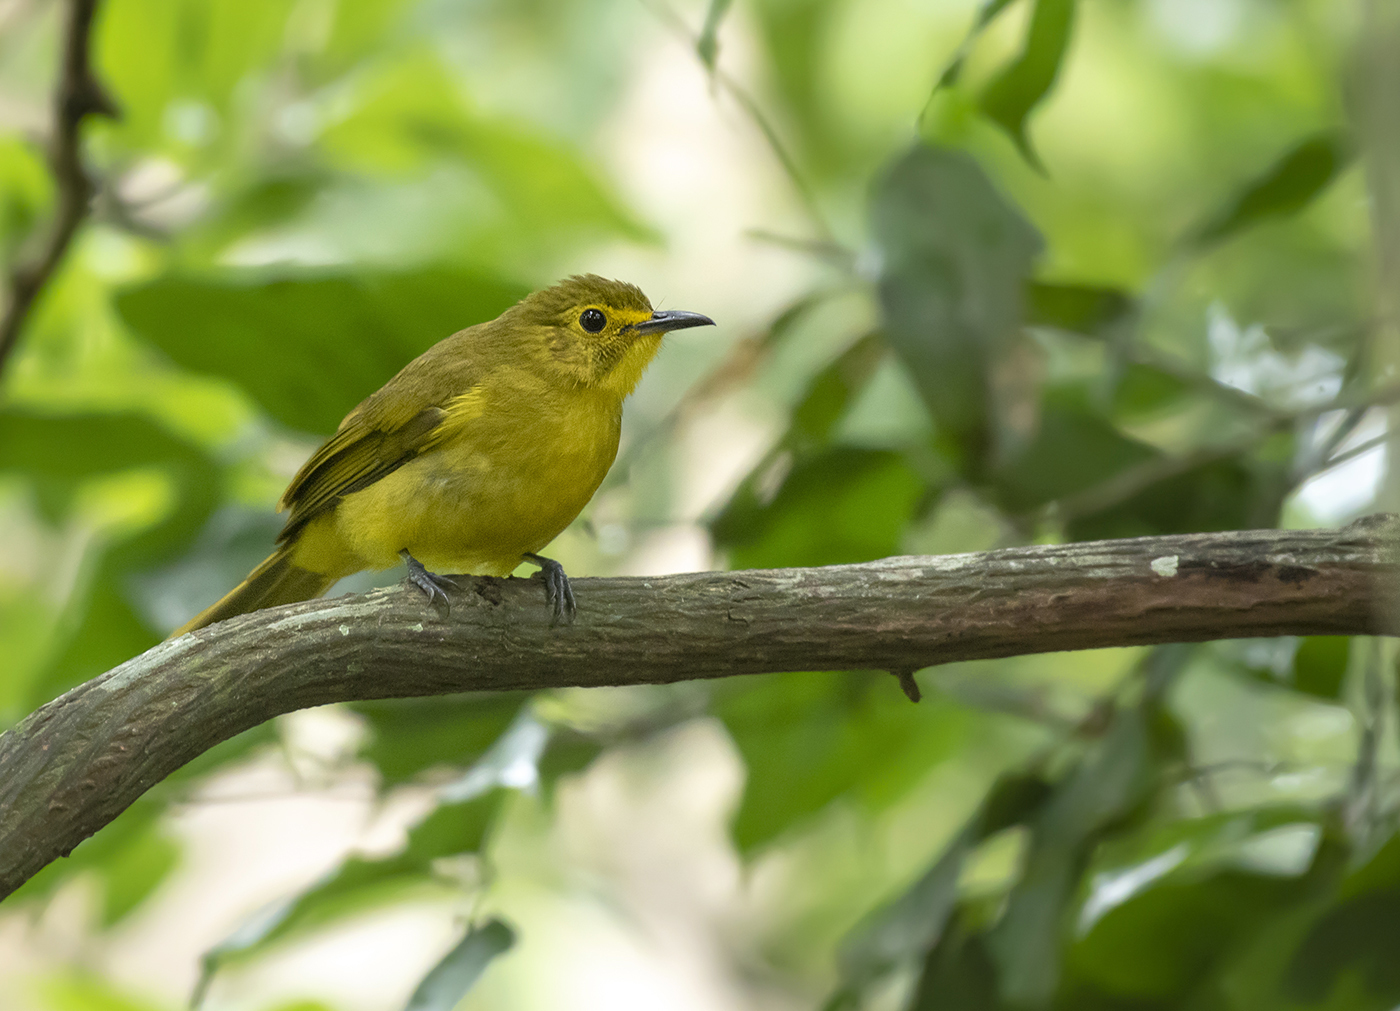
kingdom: Animalia
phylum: Chordata
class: Aves
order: Passeriformes
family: Pycnonotidae
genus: Acritillas
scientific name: Acritillas indica
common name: Yellow-browed bulbul
